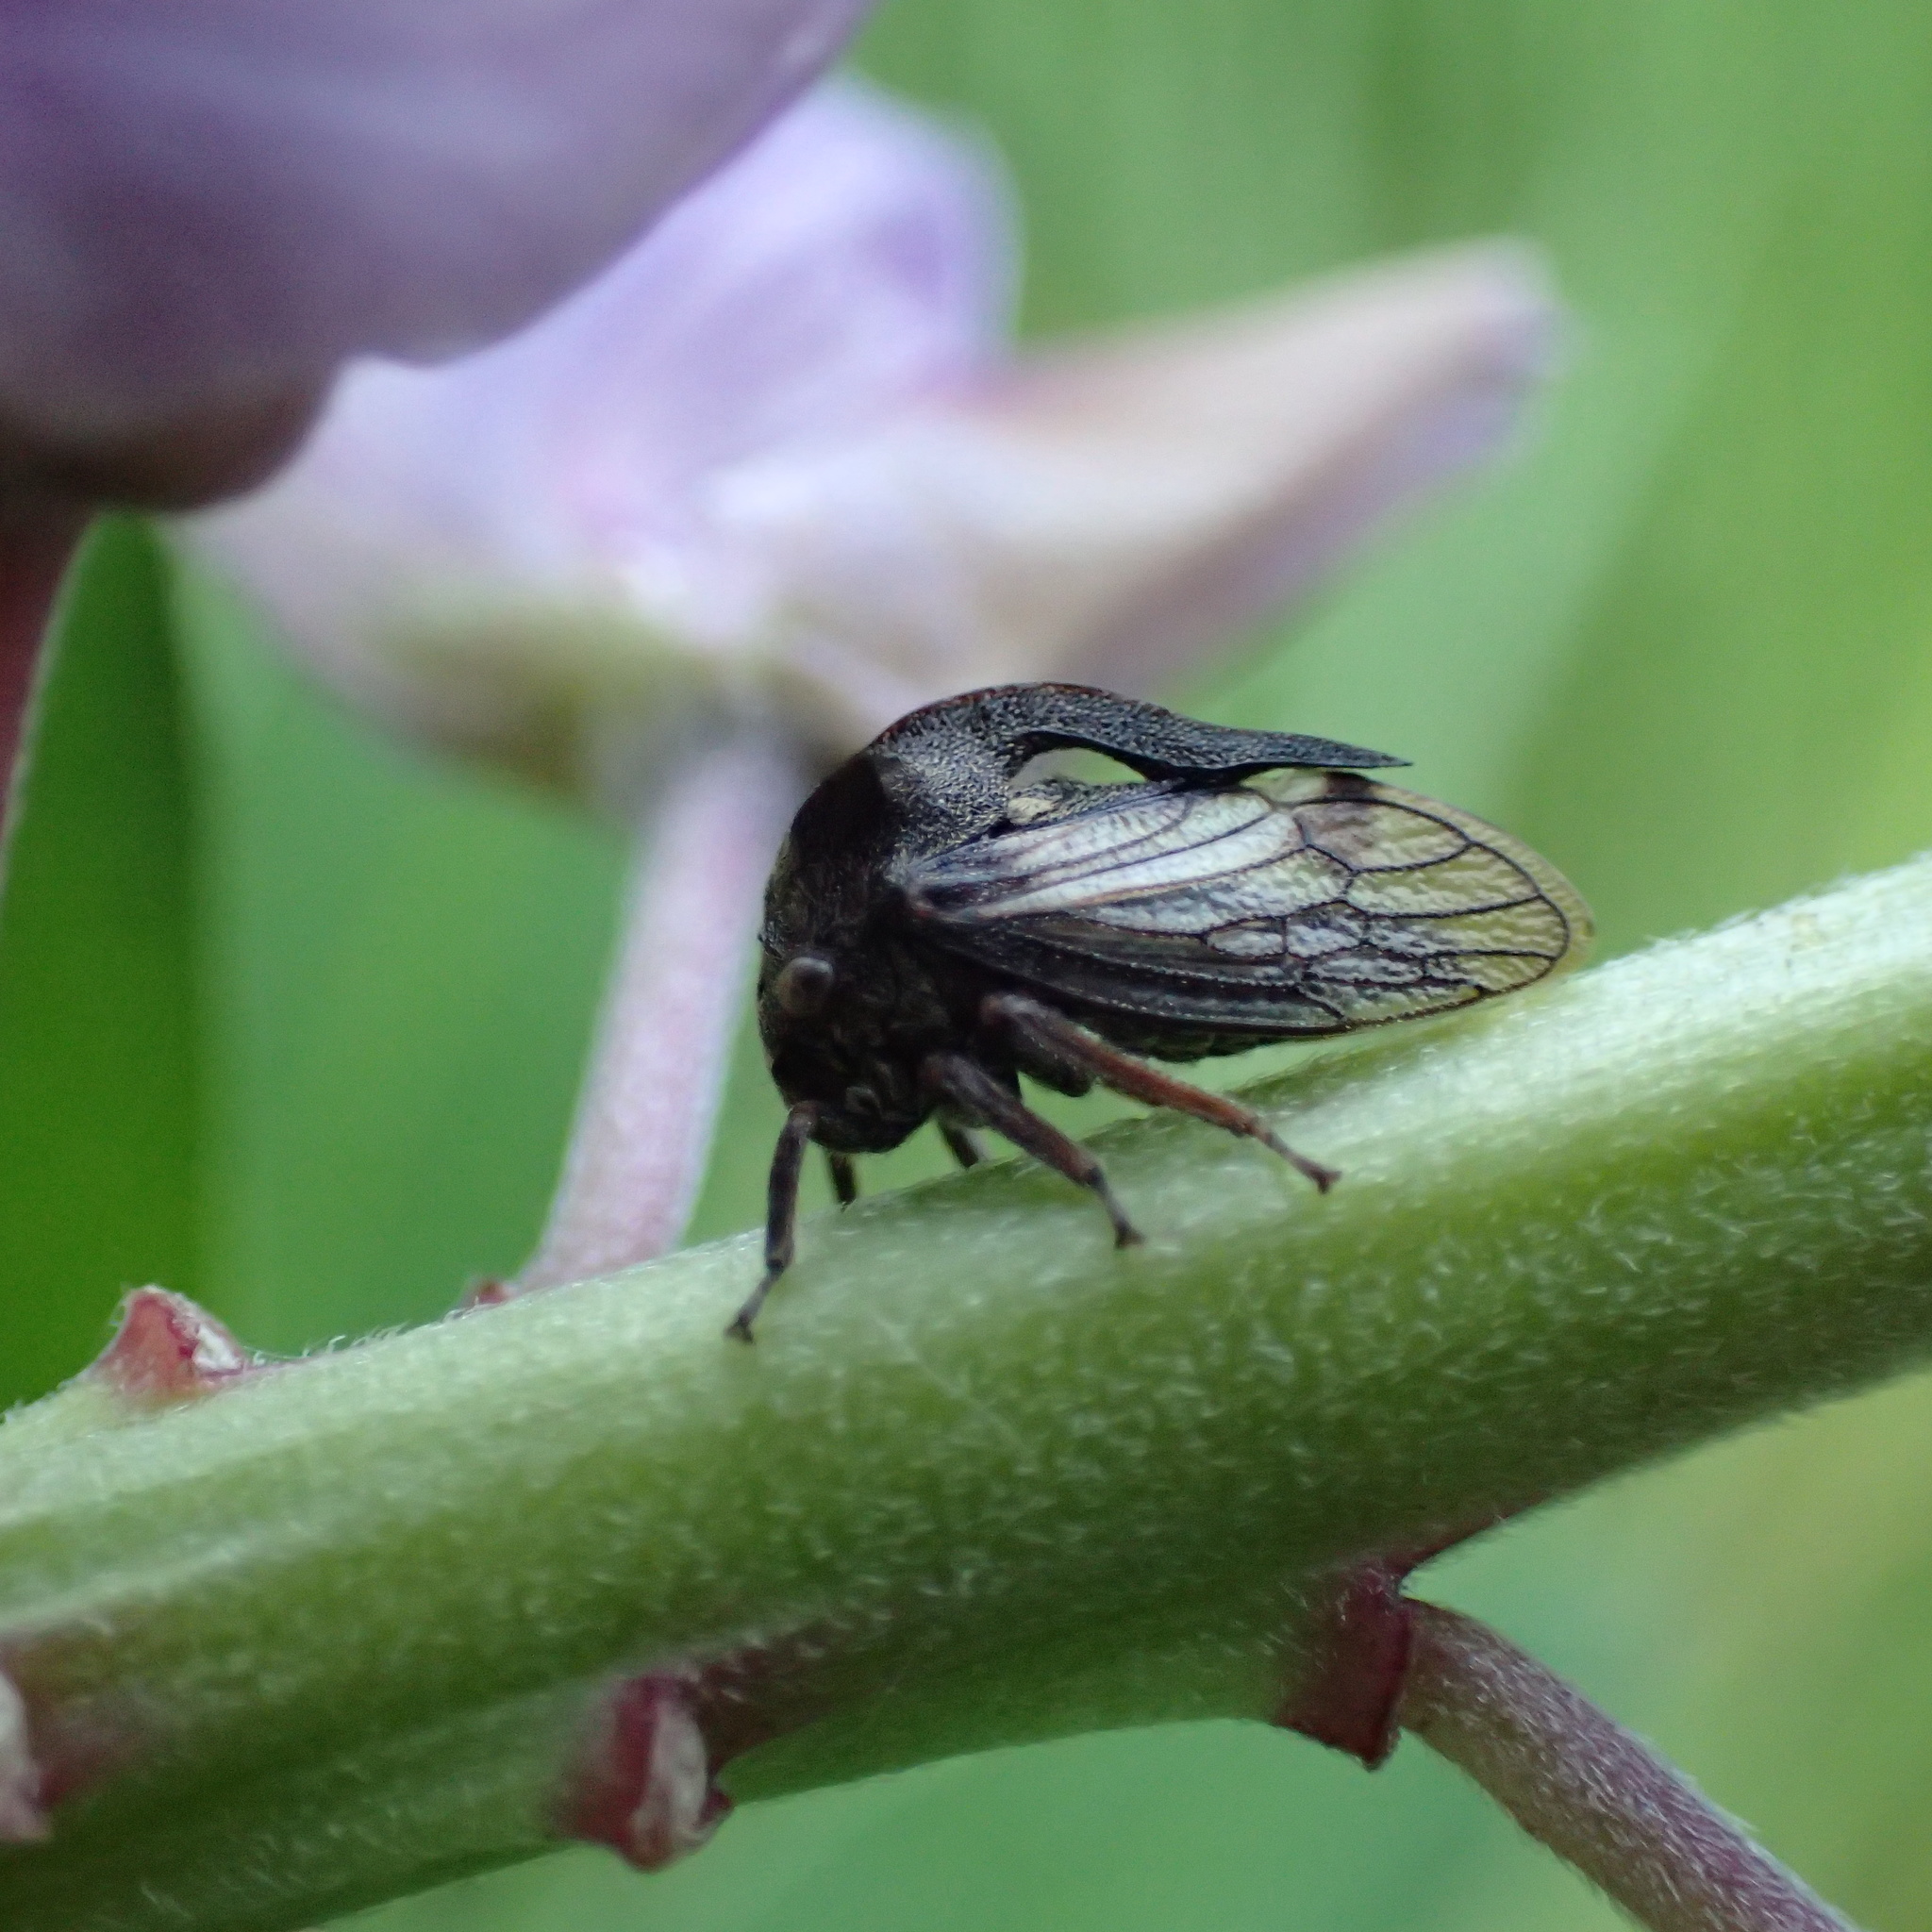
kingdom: Animalia
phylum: Arthropoda
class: Insecta
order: Hemiptera
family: Membracidae
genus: Centrotus
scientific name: Centrotus cornuta
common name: Treehopper
